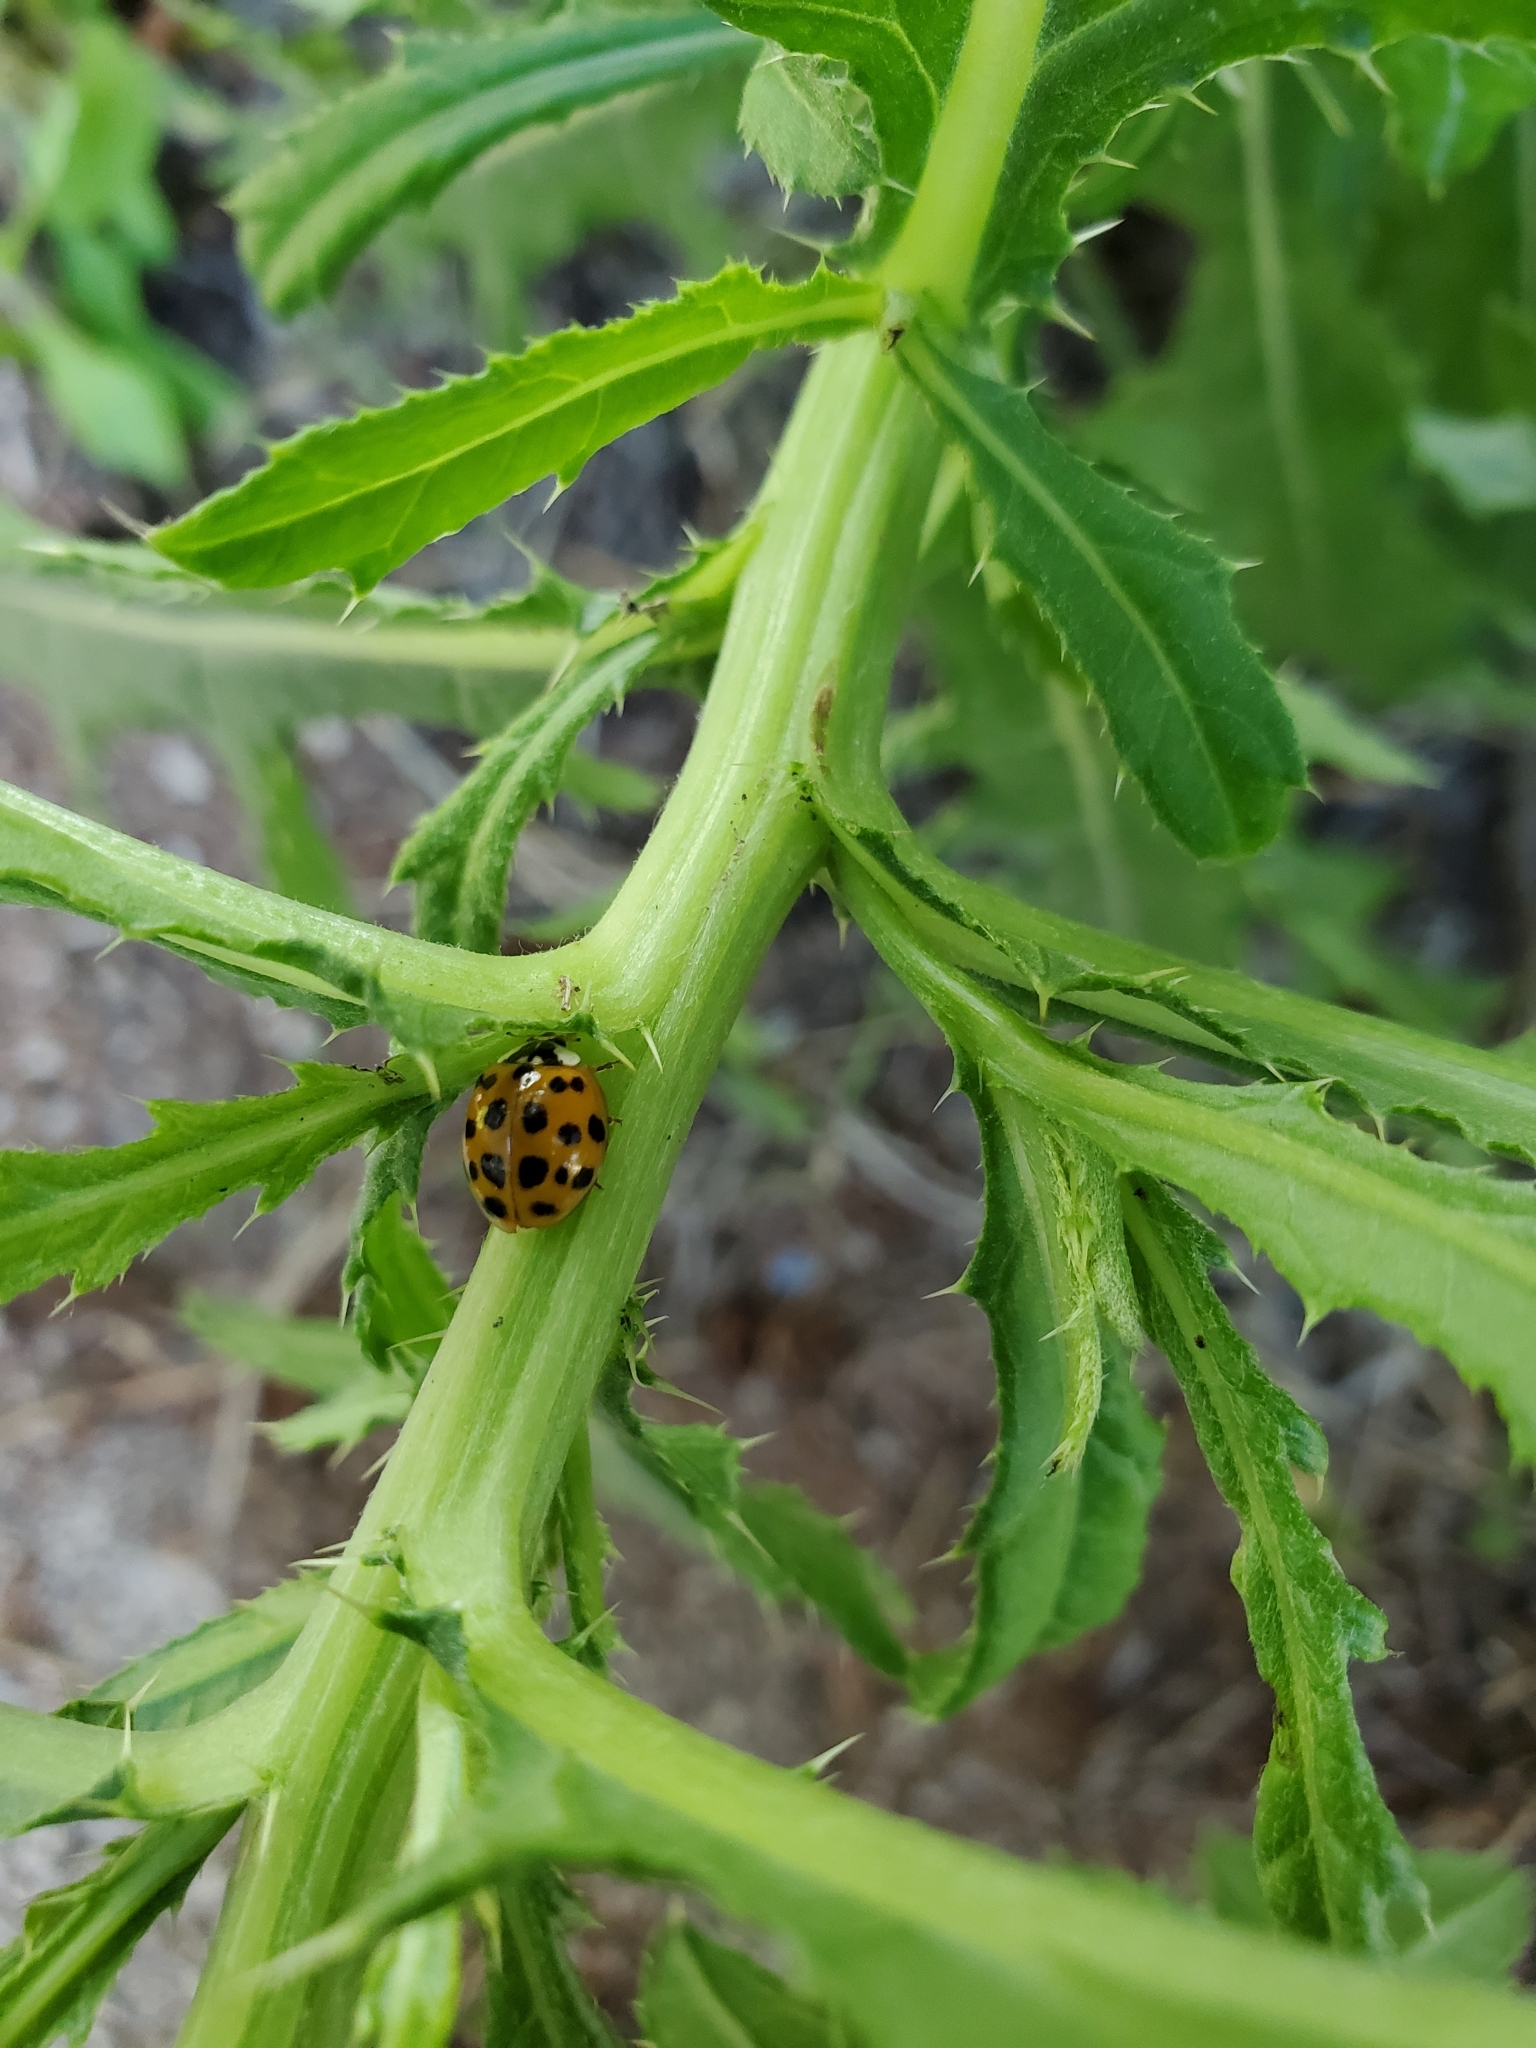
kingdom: Animalia
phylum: Arthropoda
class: Insecta
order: Coleoptera
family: Coccinellidae
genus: Harmonia
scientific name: Harmonia axyridis
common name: Harlequin ladybird
